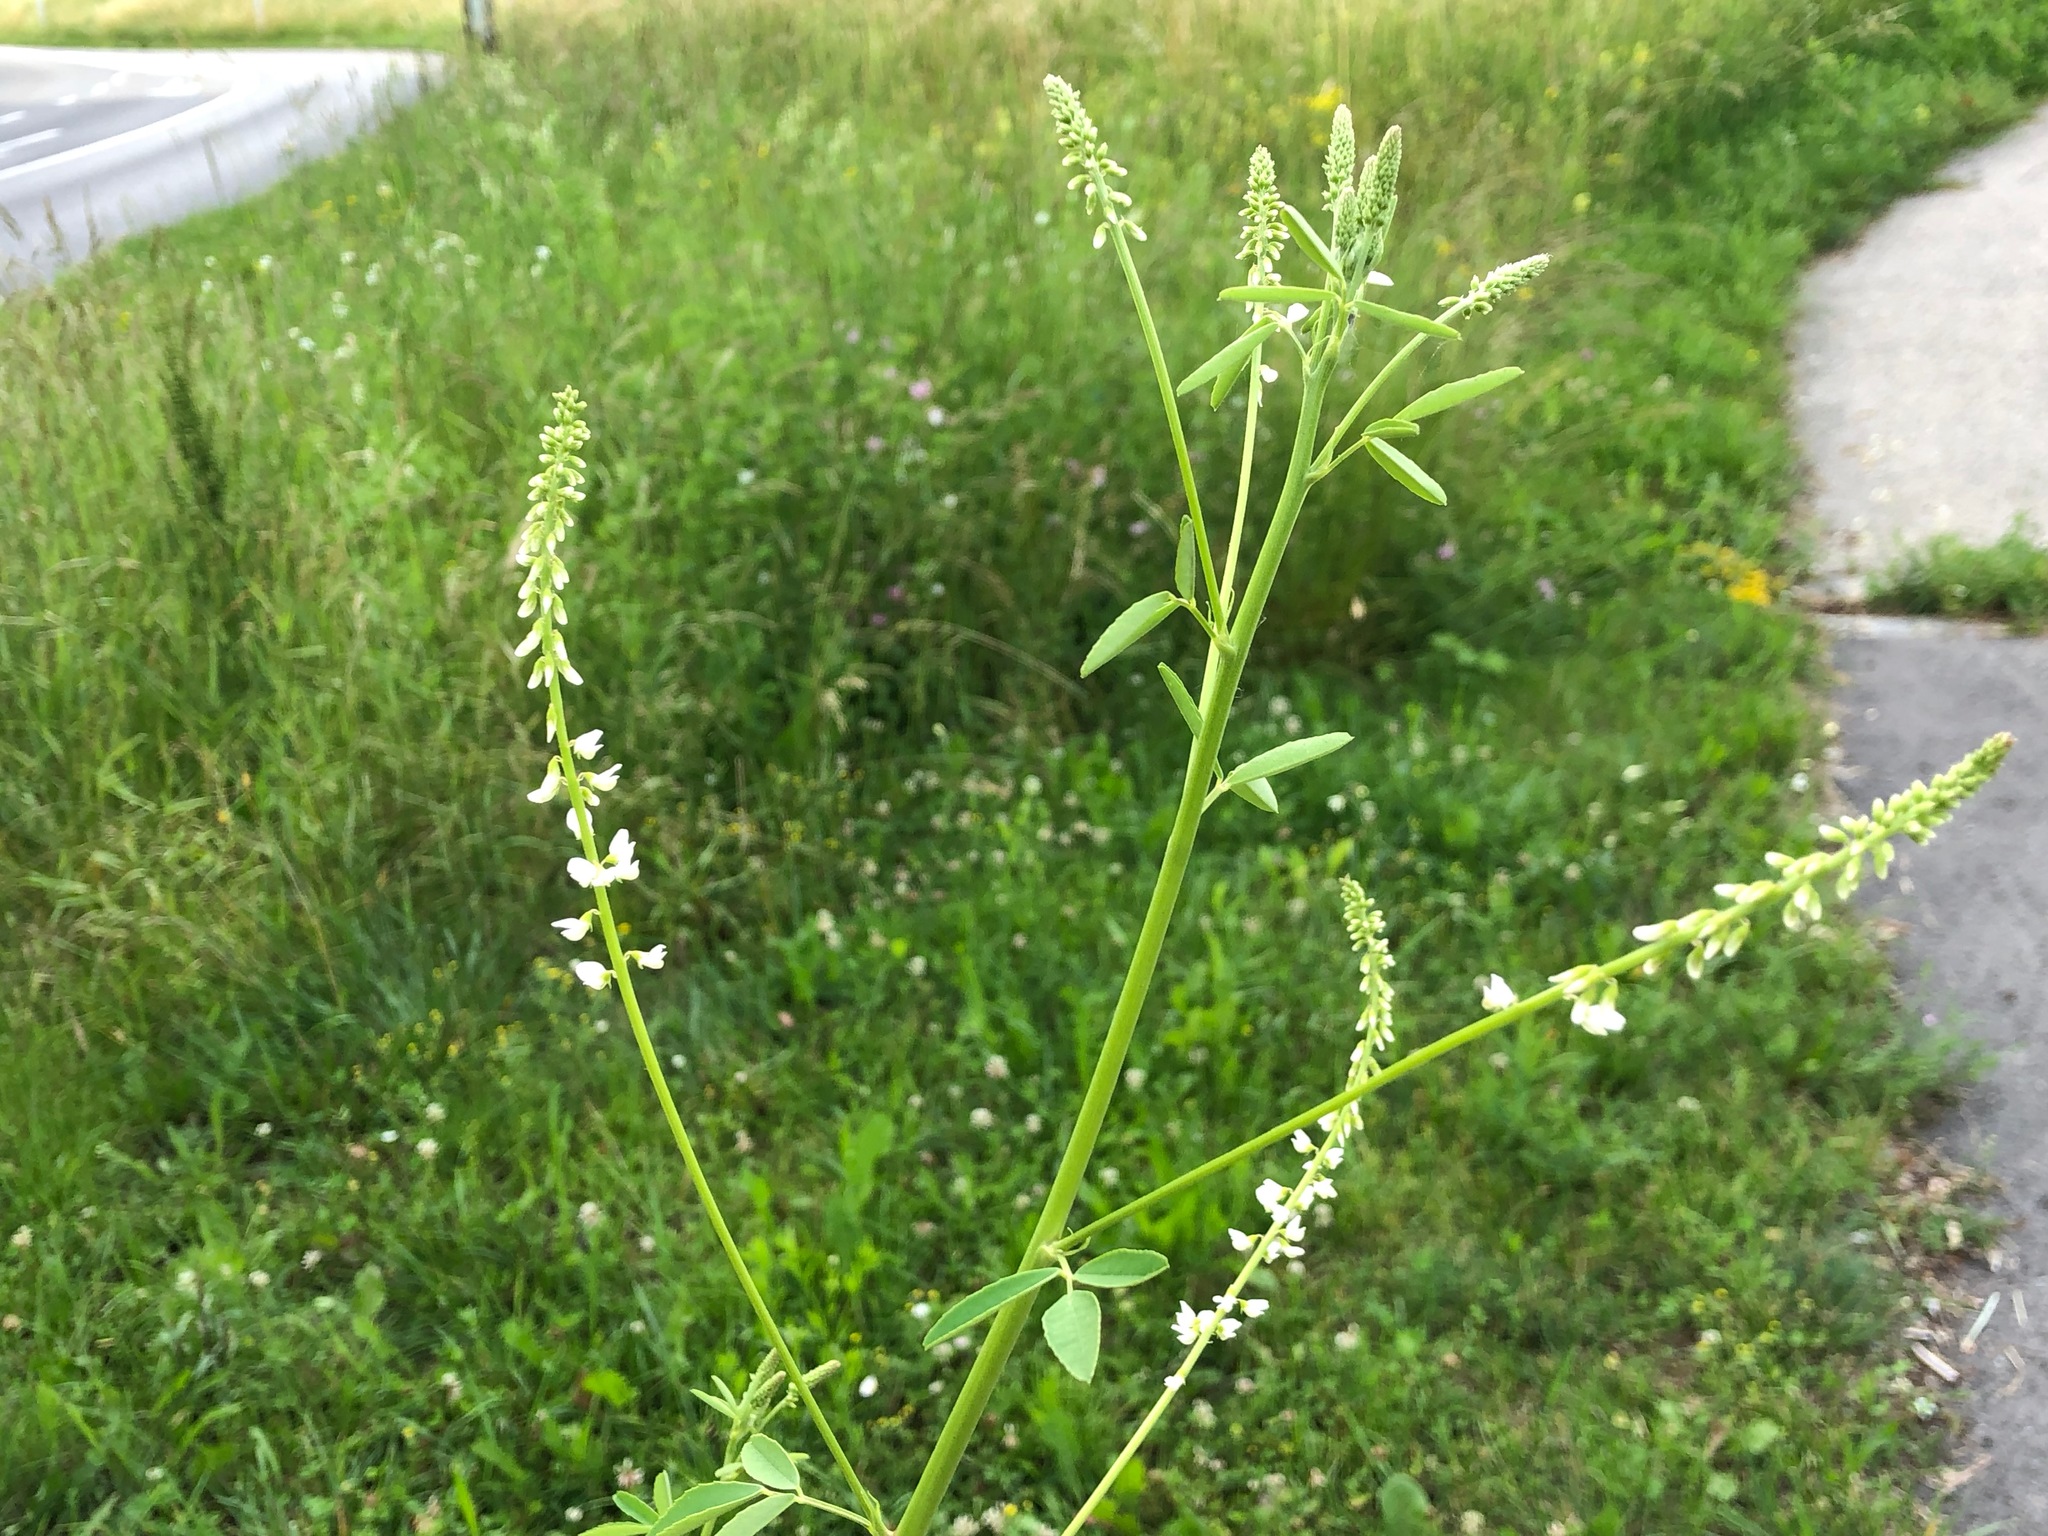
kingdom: Plantae
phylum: Tracheophyta
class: Magnoliopsida
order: Fabales
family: Fabaceae
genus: Melilotus
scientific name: Melilotus albus
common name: White melilot
